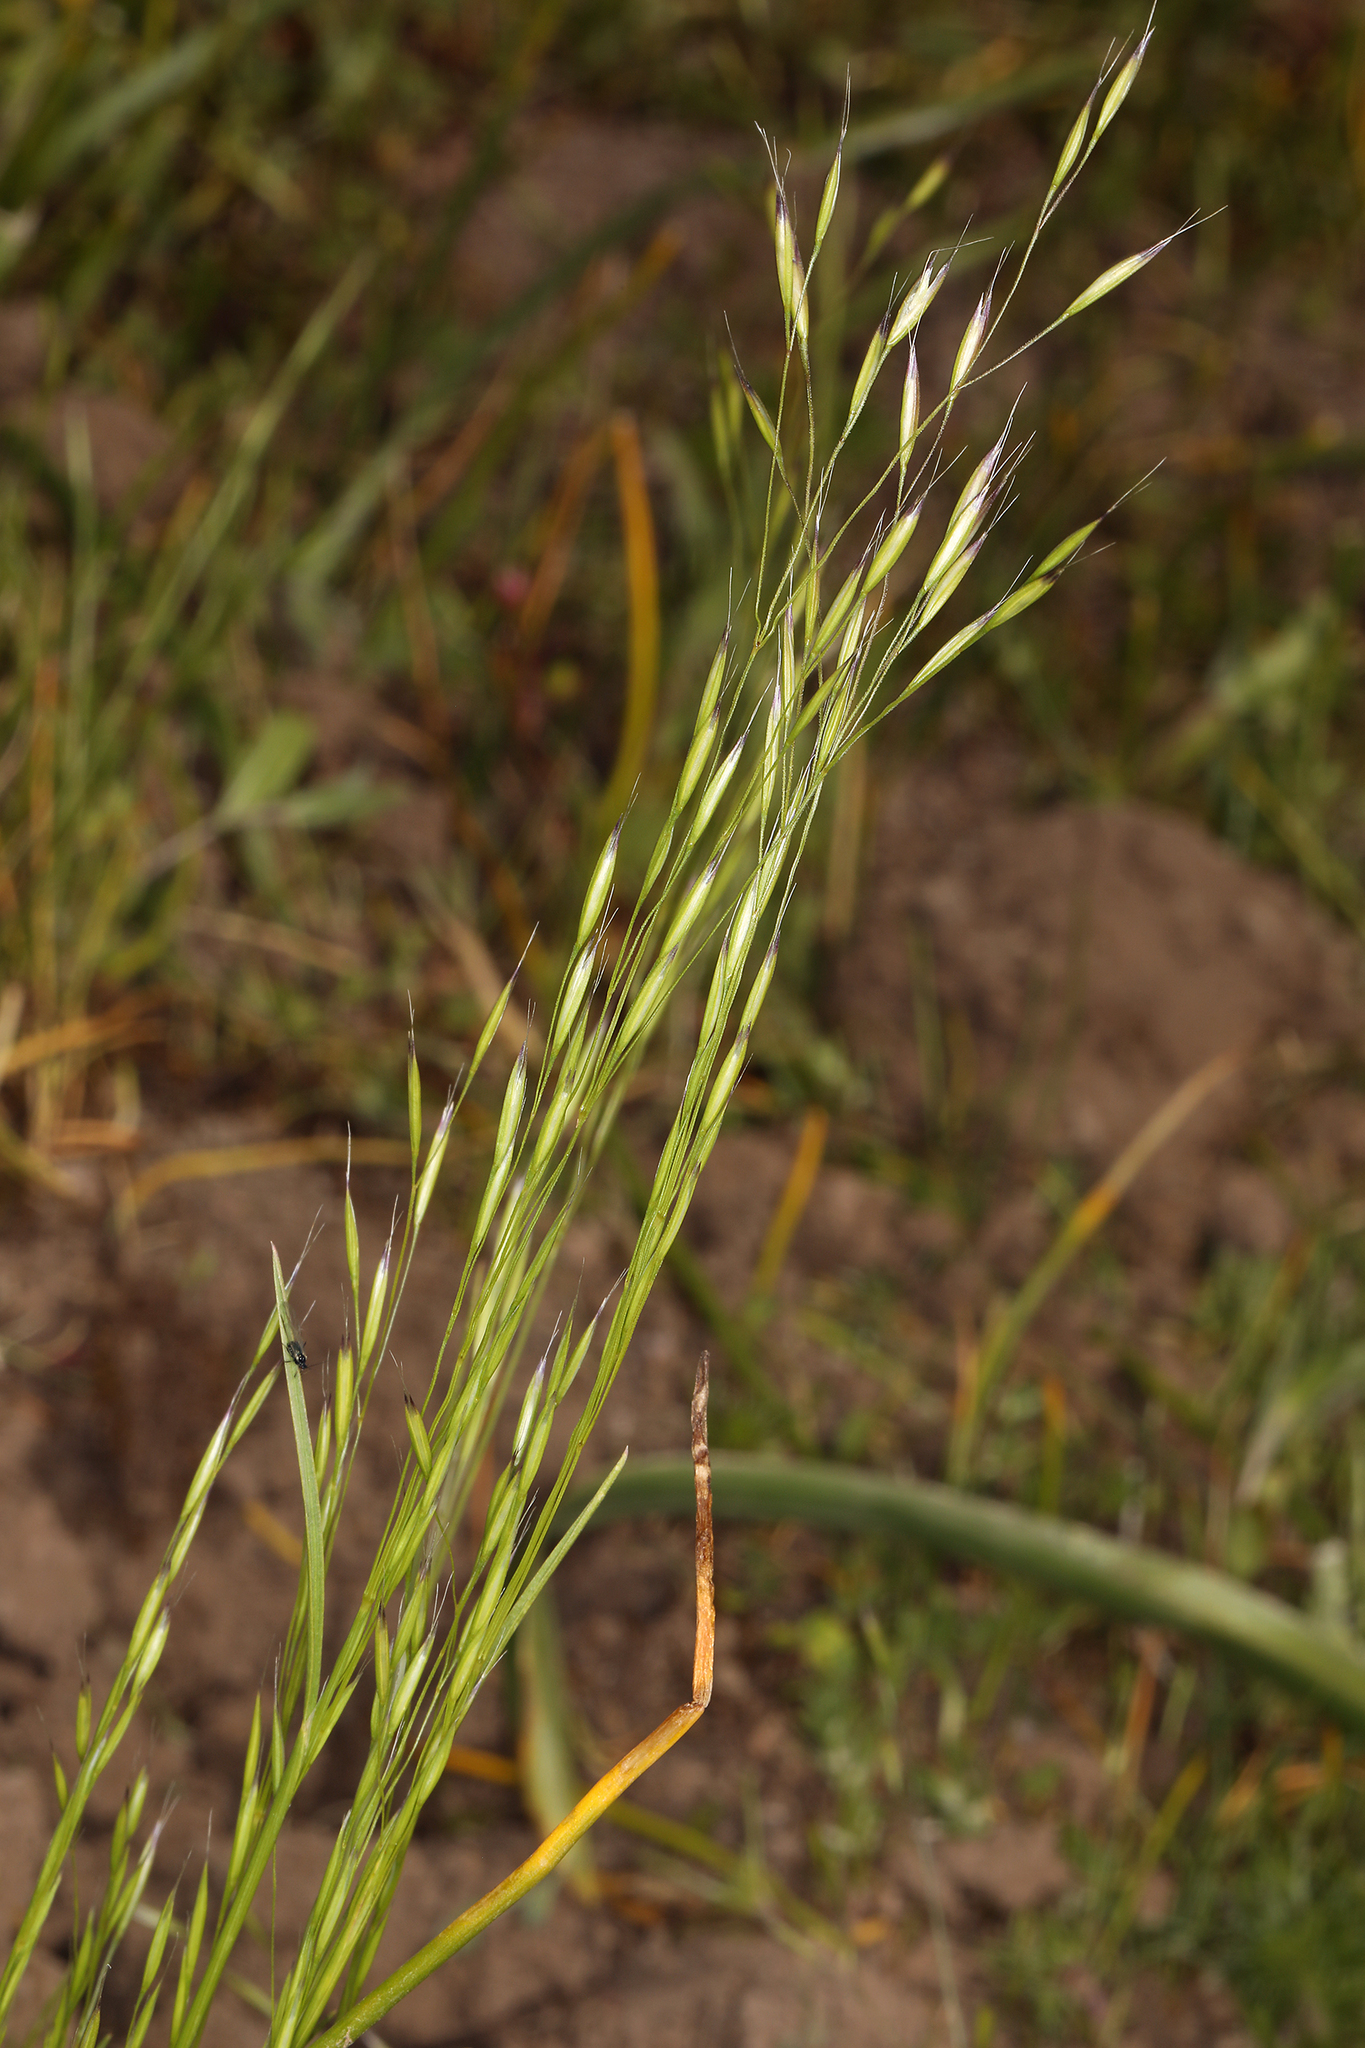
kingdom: Plantae
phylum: Tracheophyta
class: Liliopsida
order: Poales
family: Poaceae
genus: Deschampsia
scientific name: Deschampsia danthonioides
